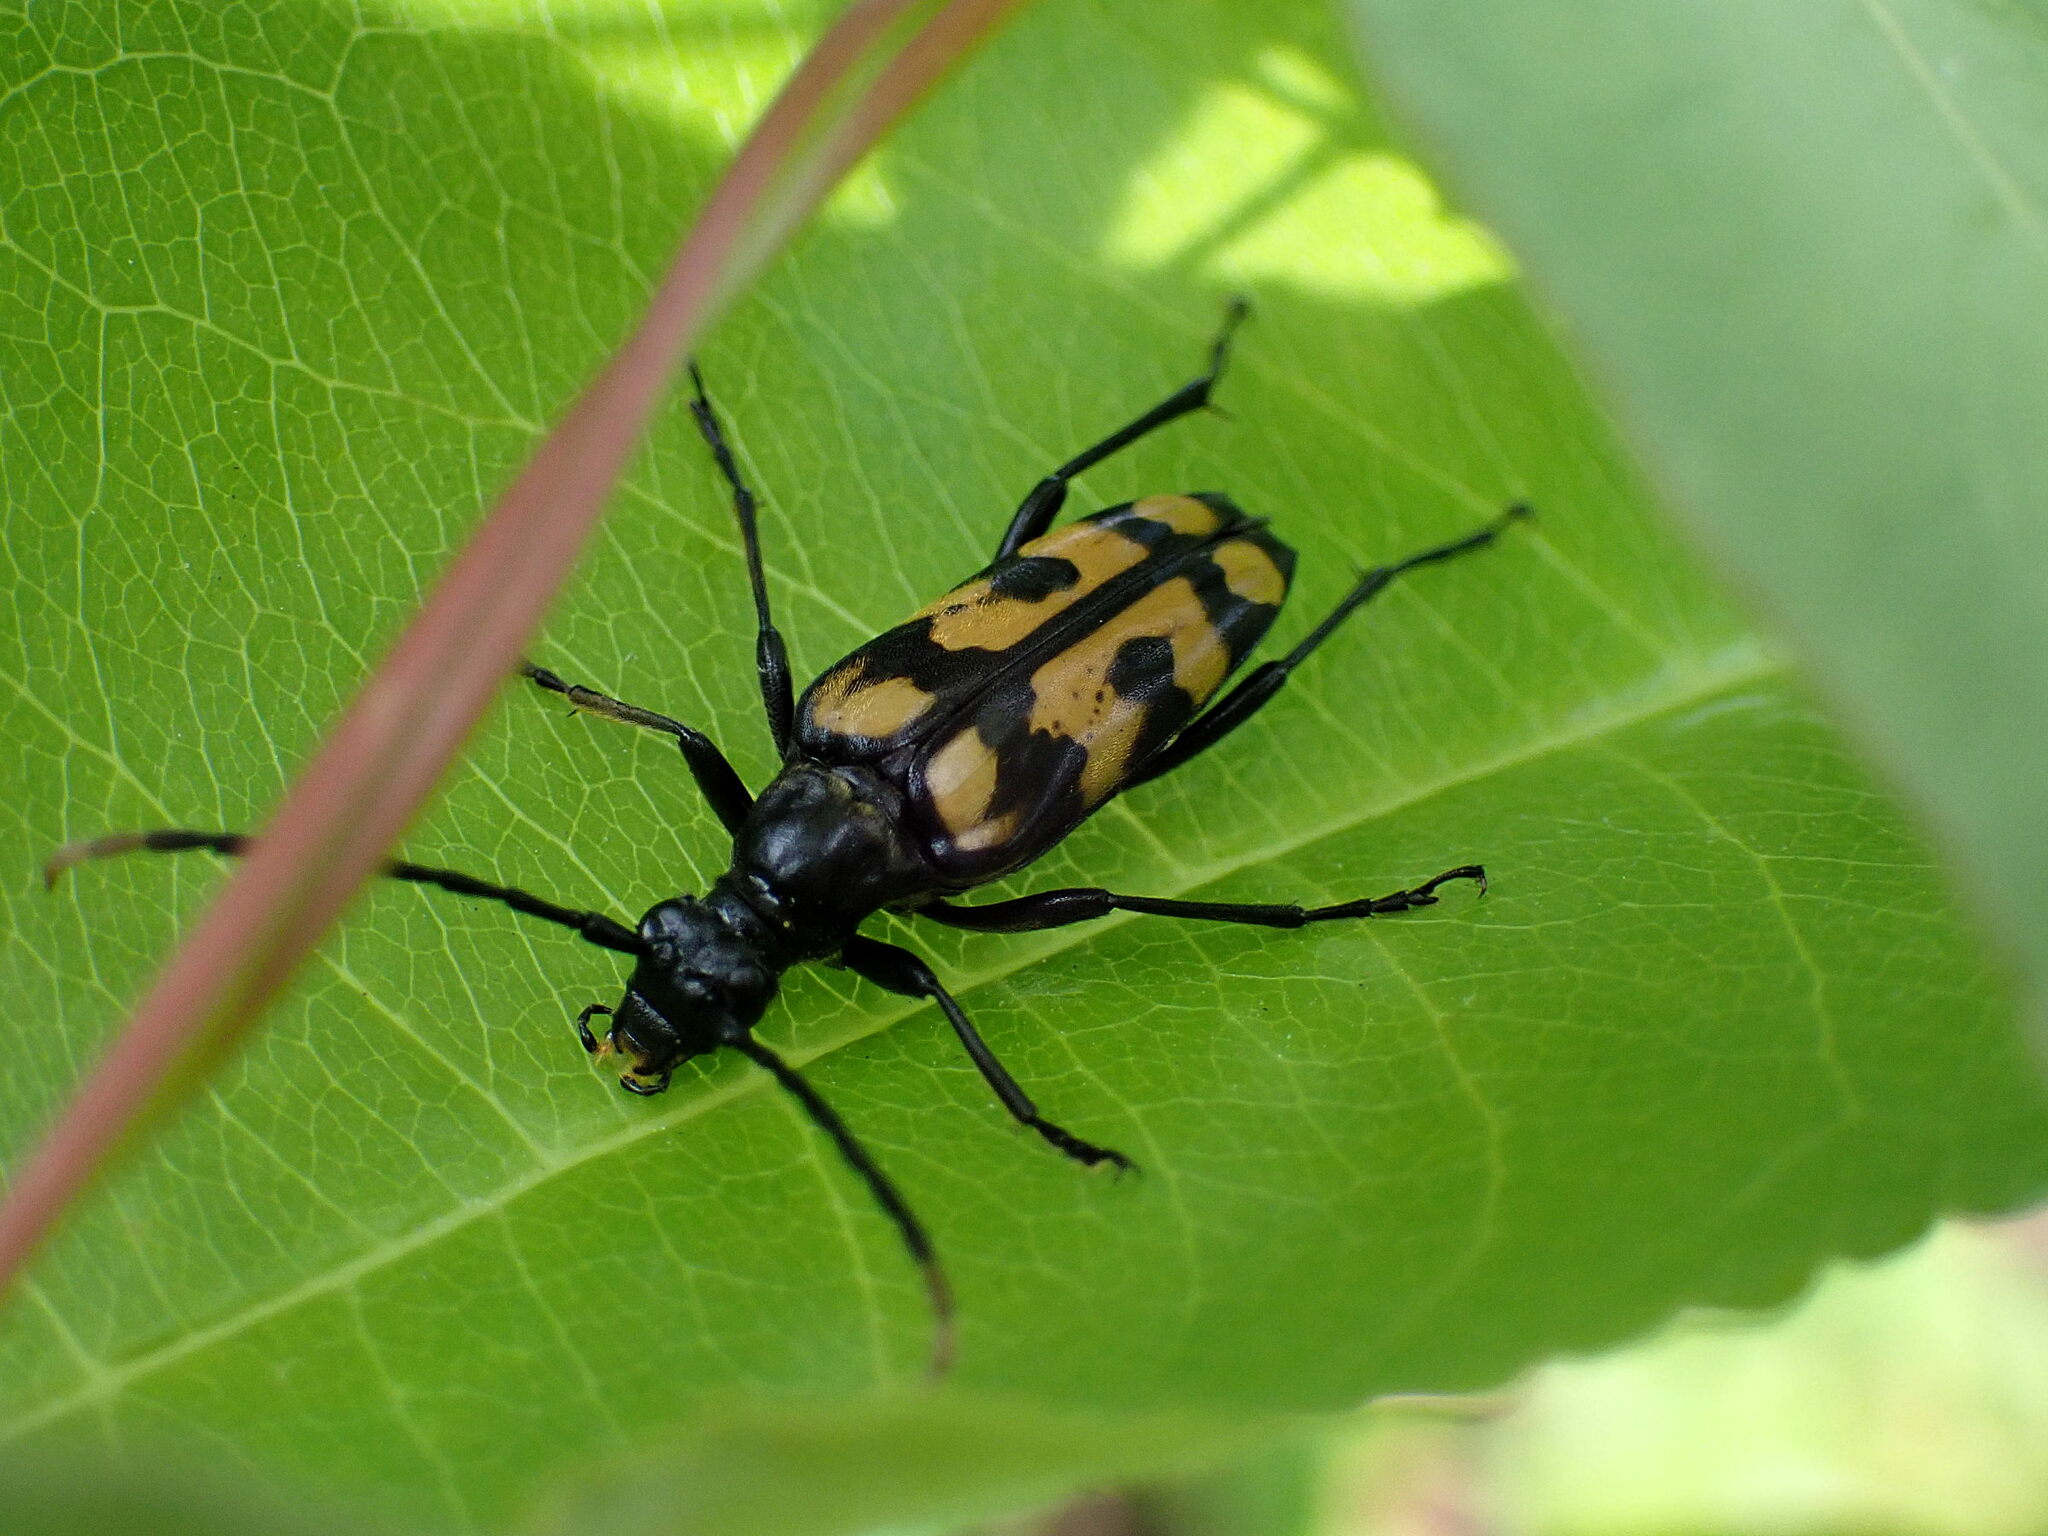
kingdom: Animalia
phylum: Arthropoda
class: Insecta
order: Coleoptera
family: Cerambycidae
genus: Leptura
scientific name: Leptura quadrifasciata
